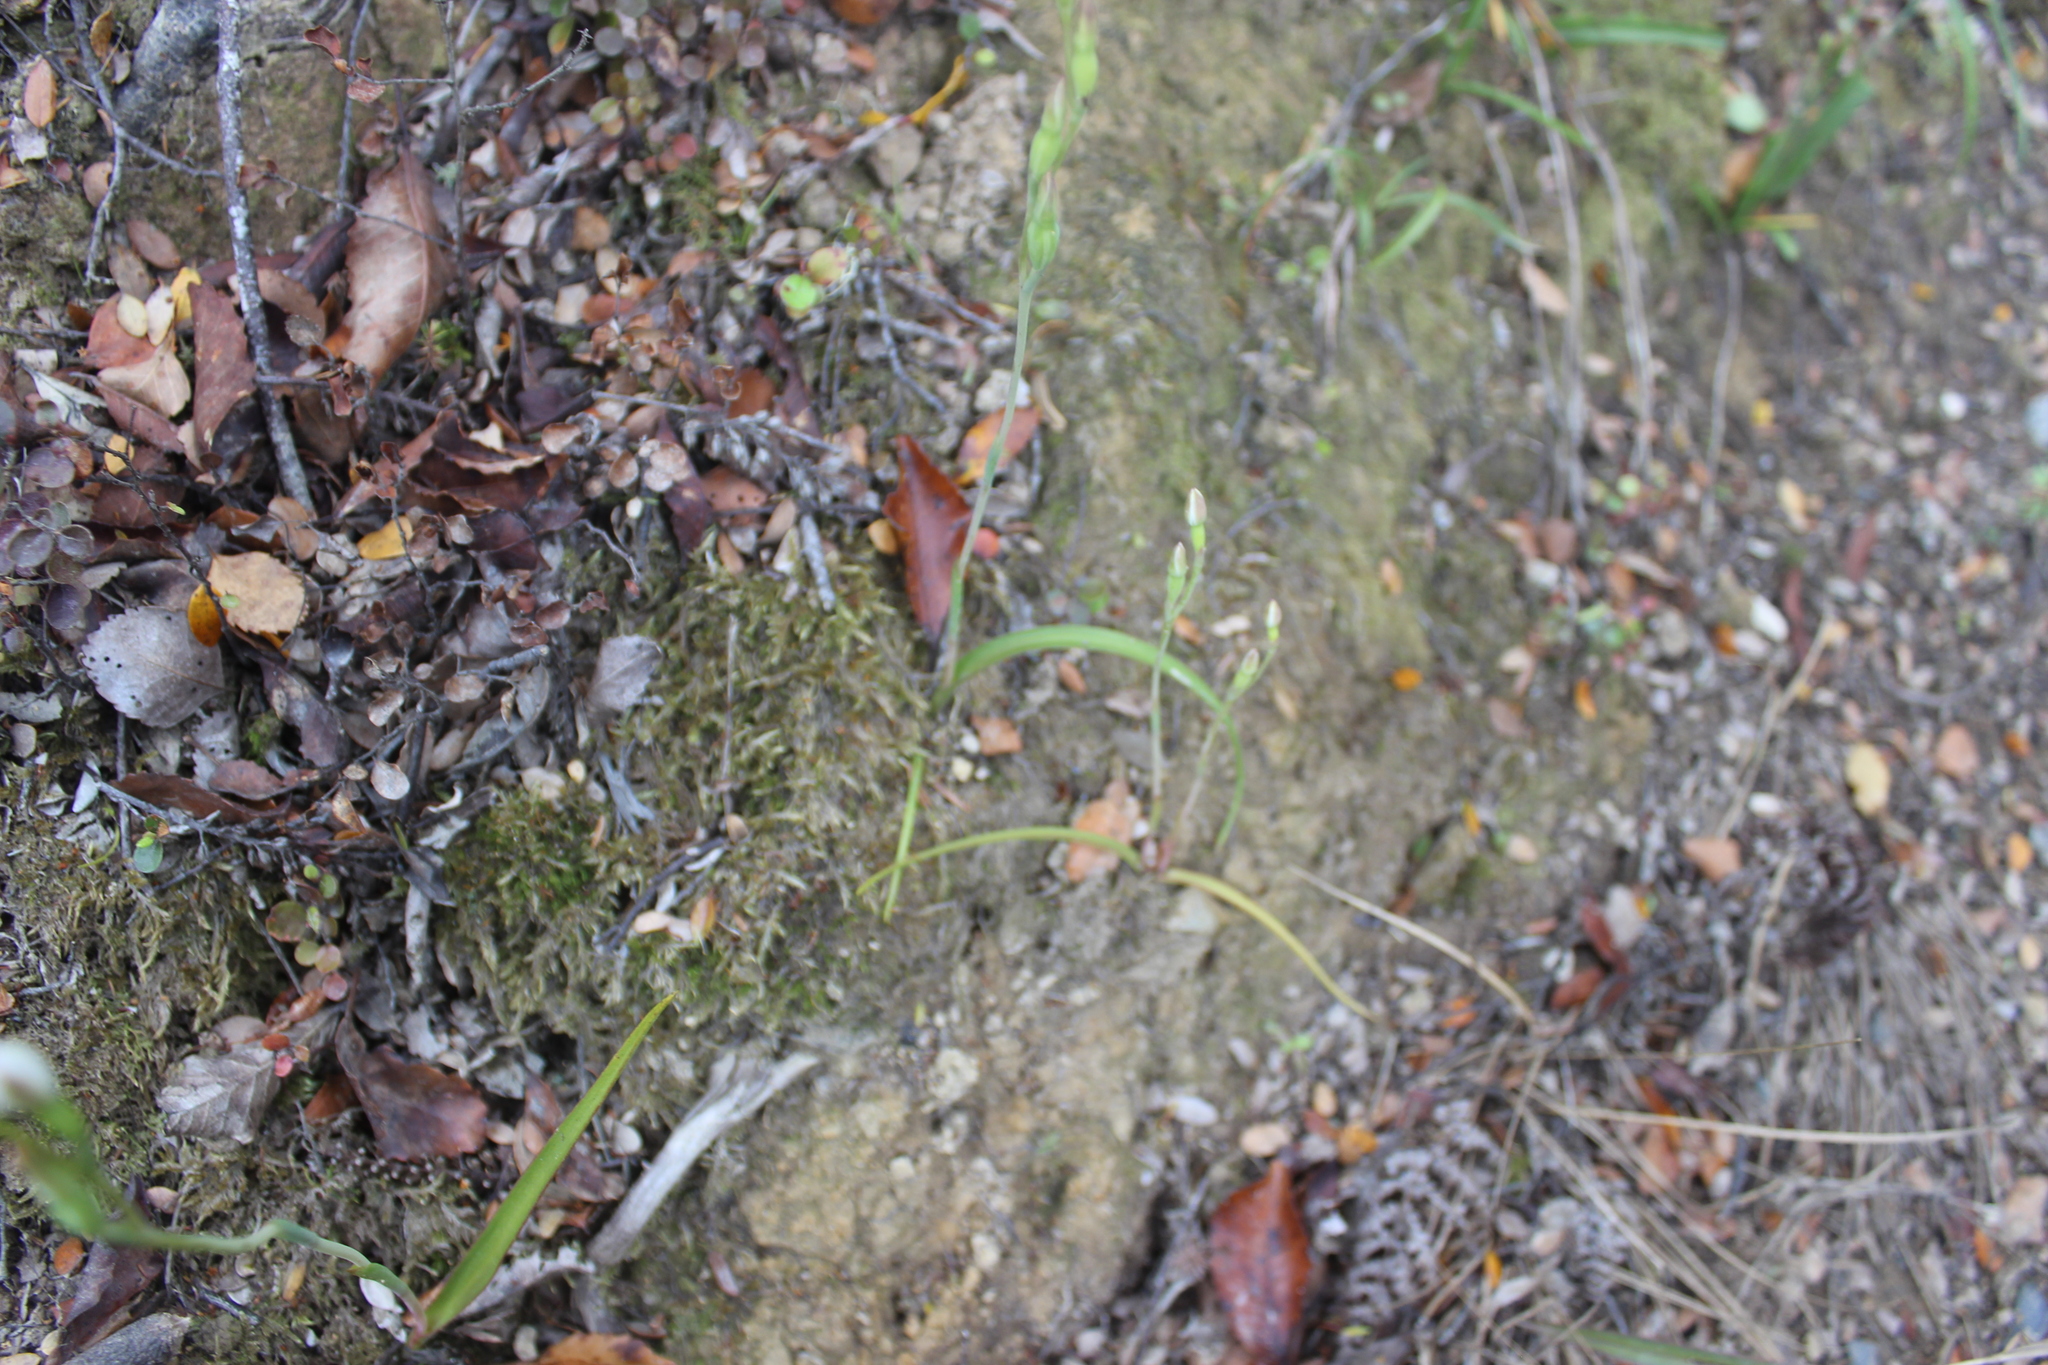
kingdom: Plantae
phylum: Tracheophyta
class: Liliopsida
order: Asparagales
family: Orchidaceae
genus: Thelymitra
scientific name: Thelymitra longifolia
